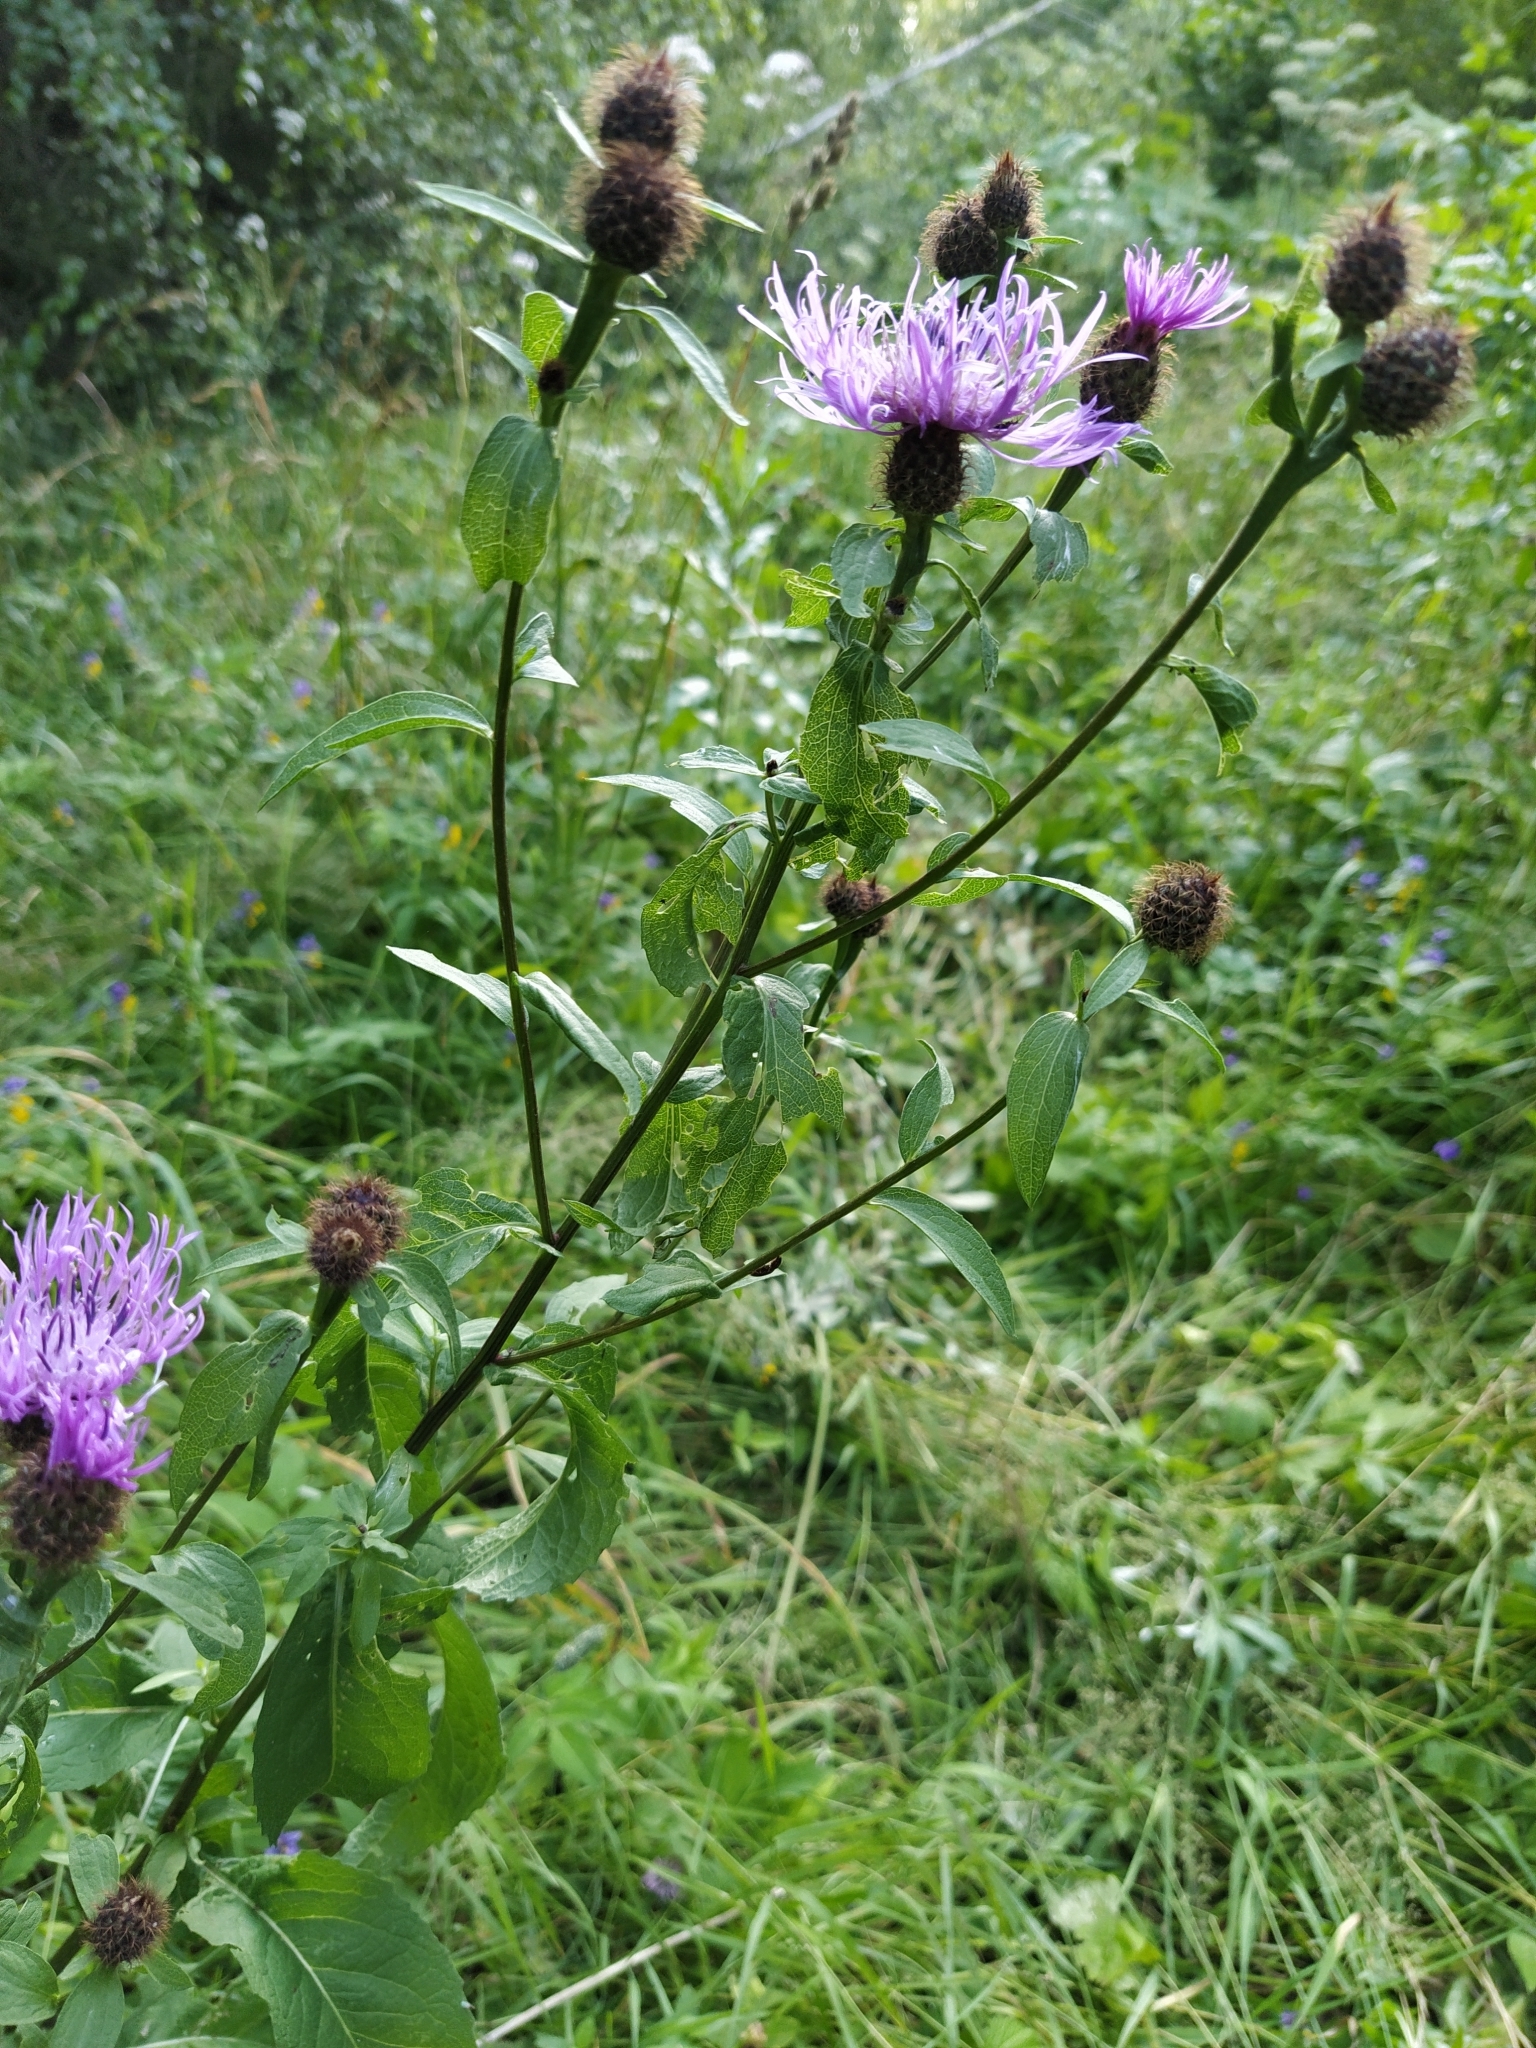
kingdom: Plantae
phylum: Tracheophyta
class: Magnoliopsida
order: Asterales
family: Asteraceae
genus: Centaurea
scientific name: Centaurea phrygia
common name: Wig knapweed
